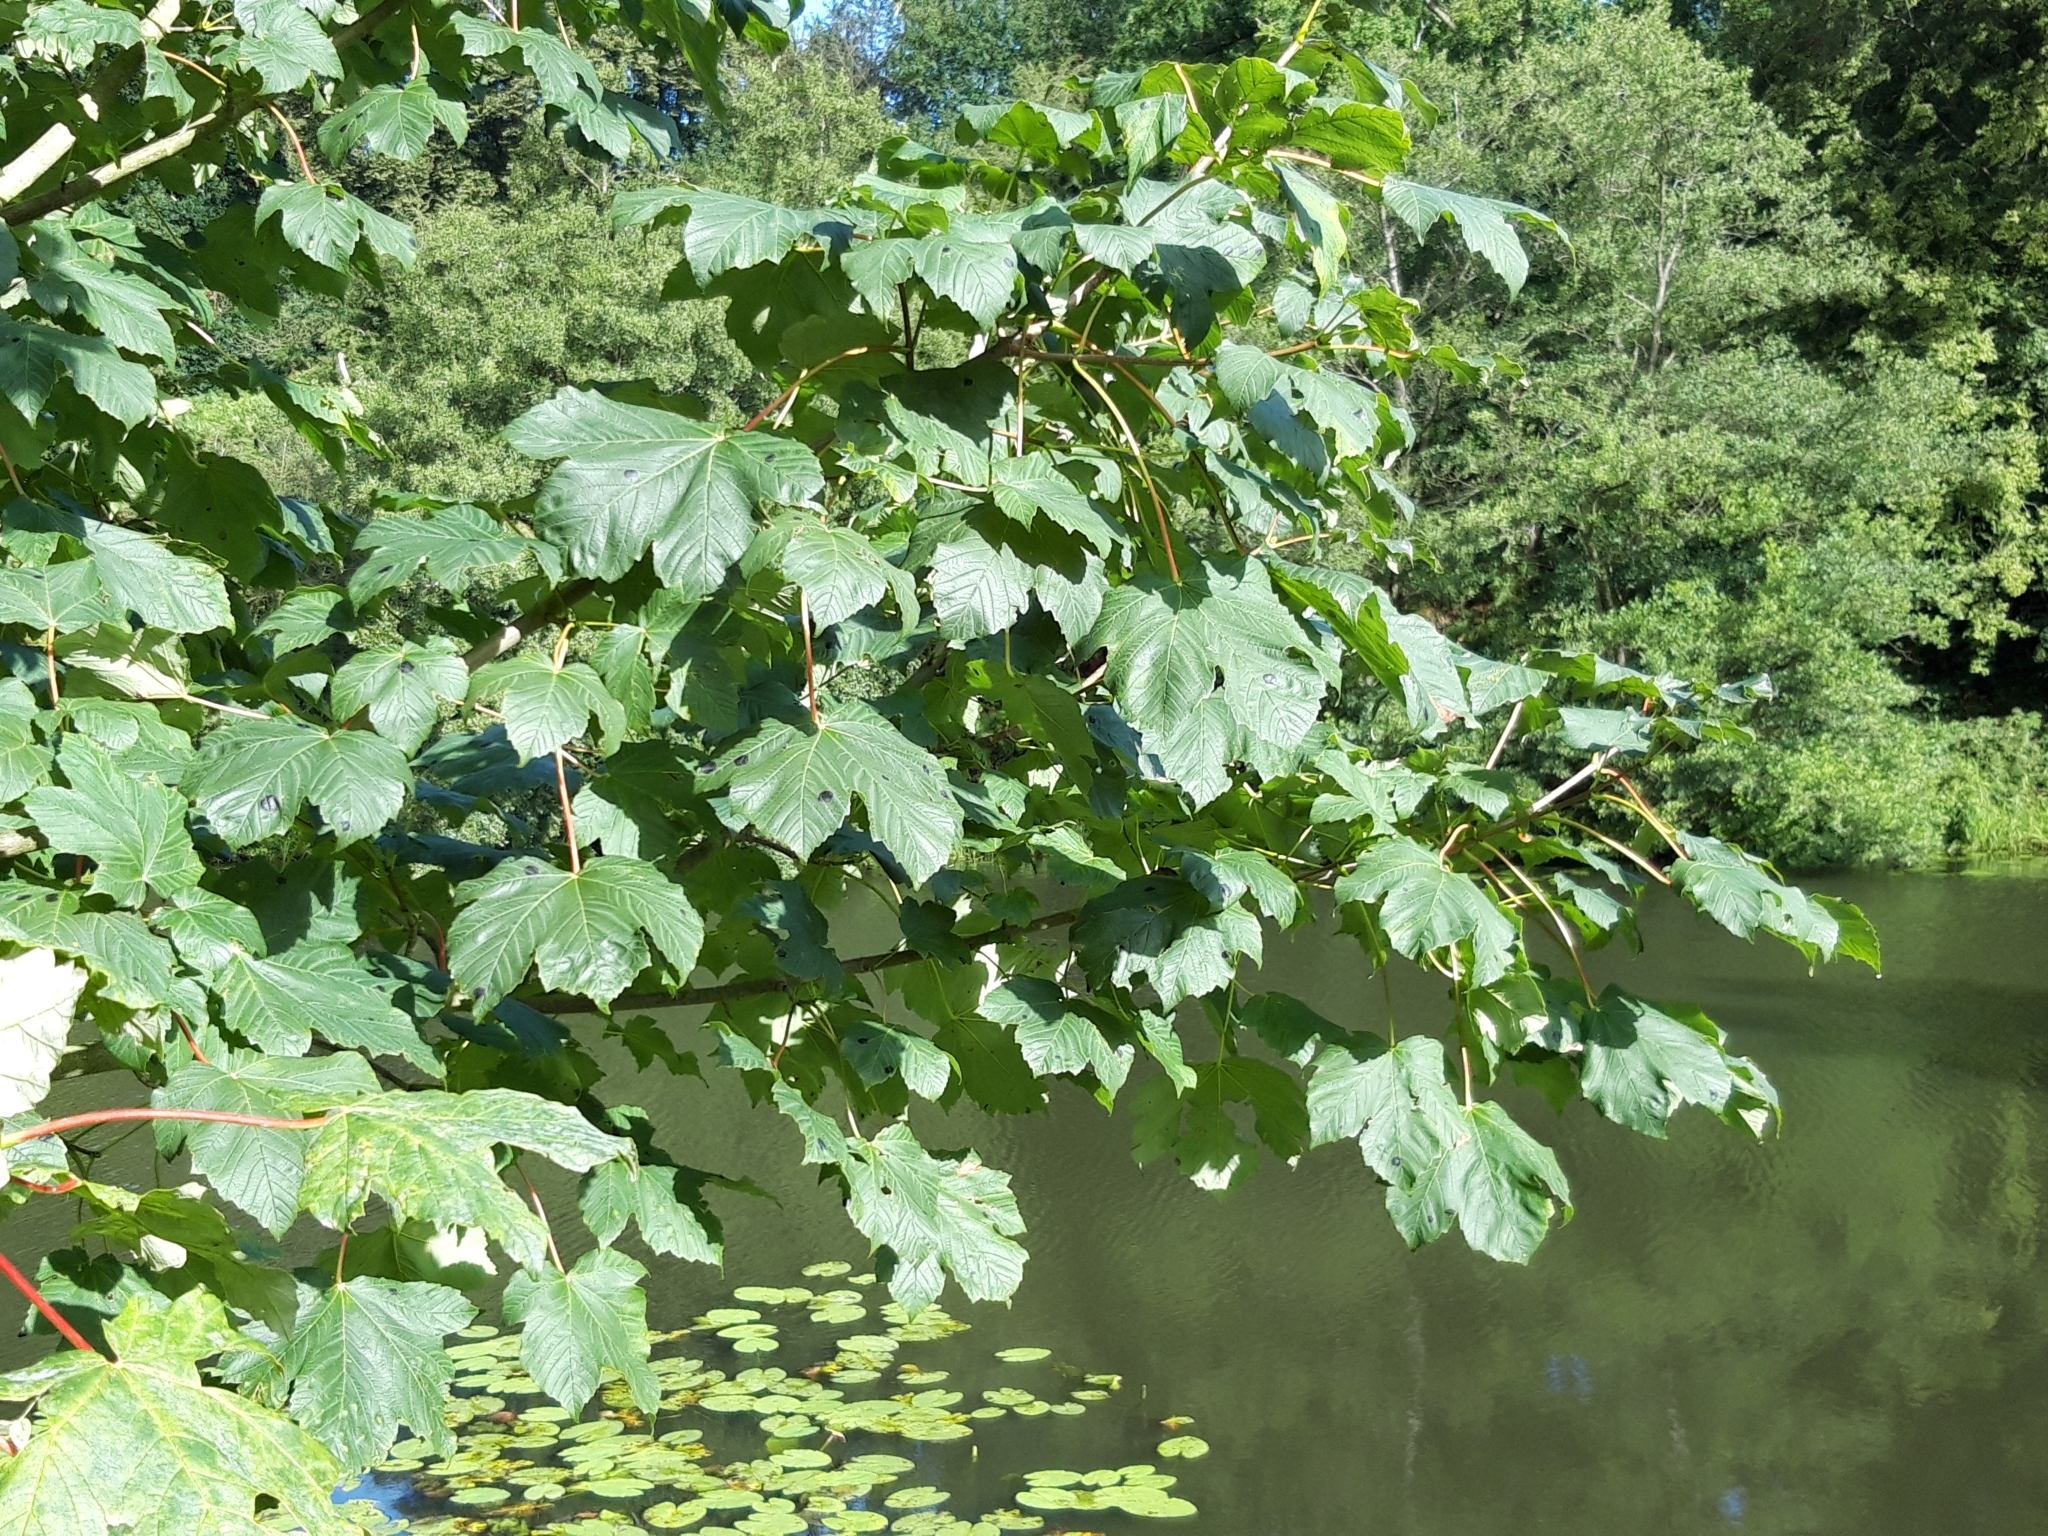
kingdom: Plantae
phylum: Tracheophyta
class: Magnoliopsida
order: Sapindales
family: Sapindaceae
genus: Acer
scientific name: Acer pseudoplatanus
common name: Sycamore
